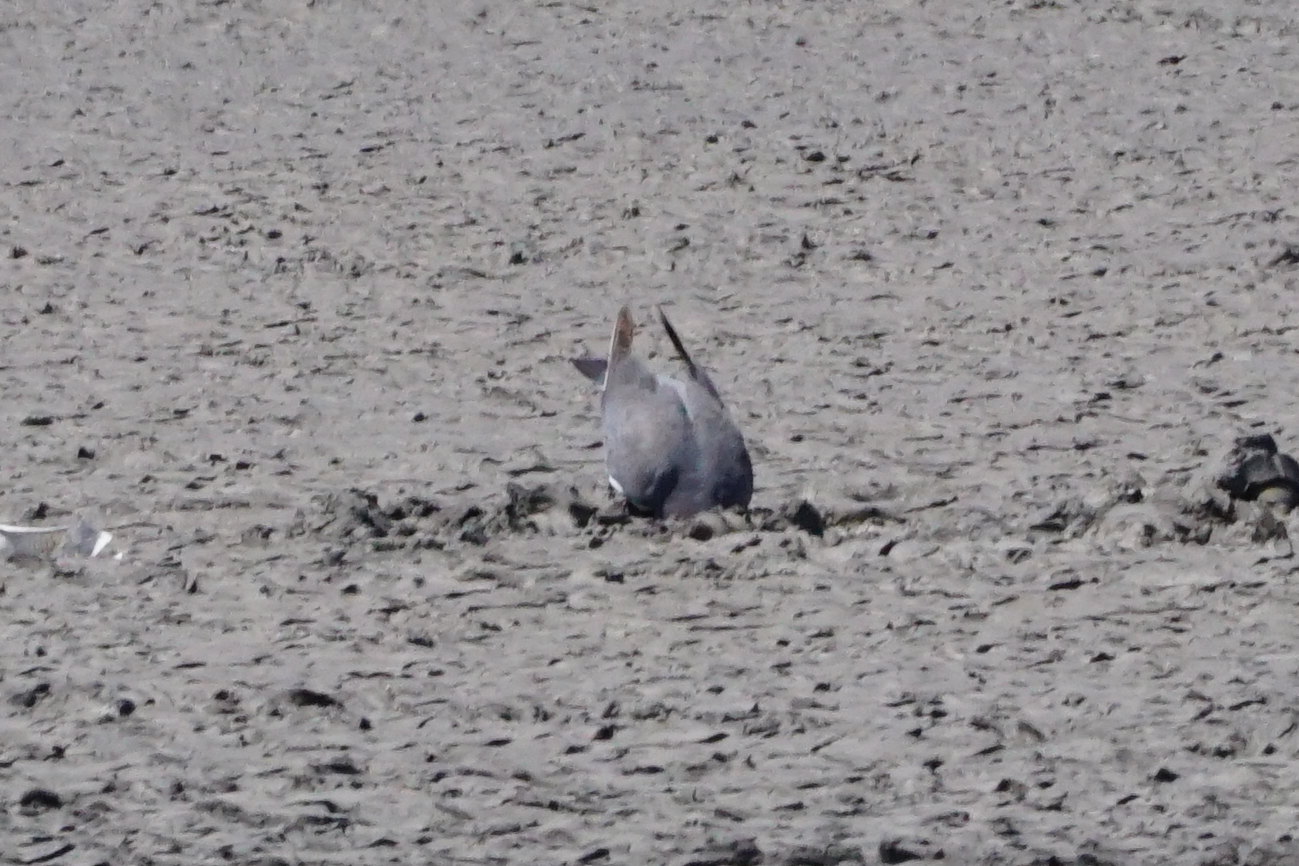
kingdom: Animalia
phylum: Chordata
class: Aves
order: Columbiformes
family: Columbidae
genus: Columba
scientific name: Columba palumbus
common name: Common wood pigeon
